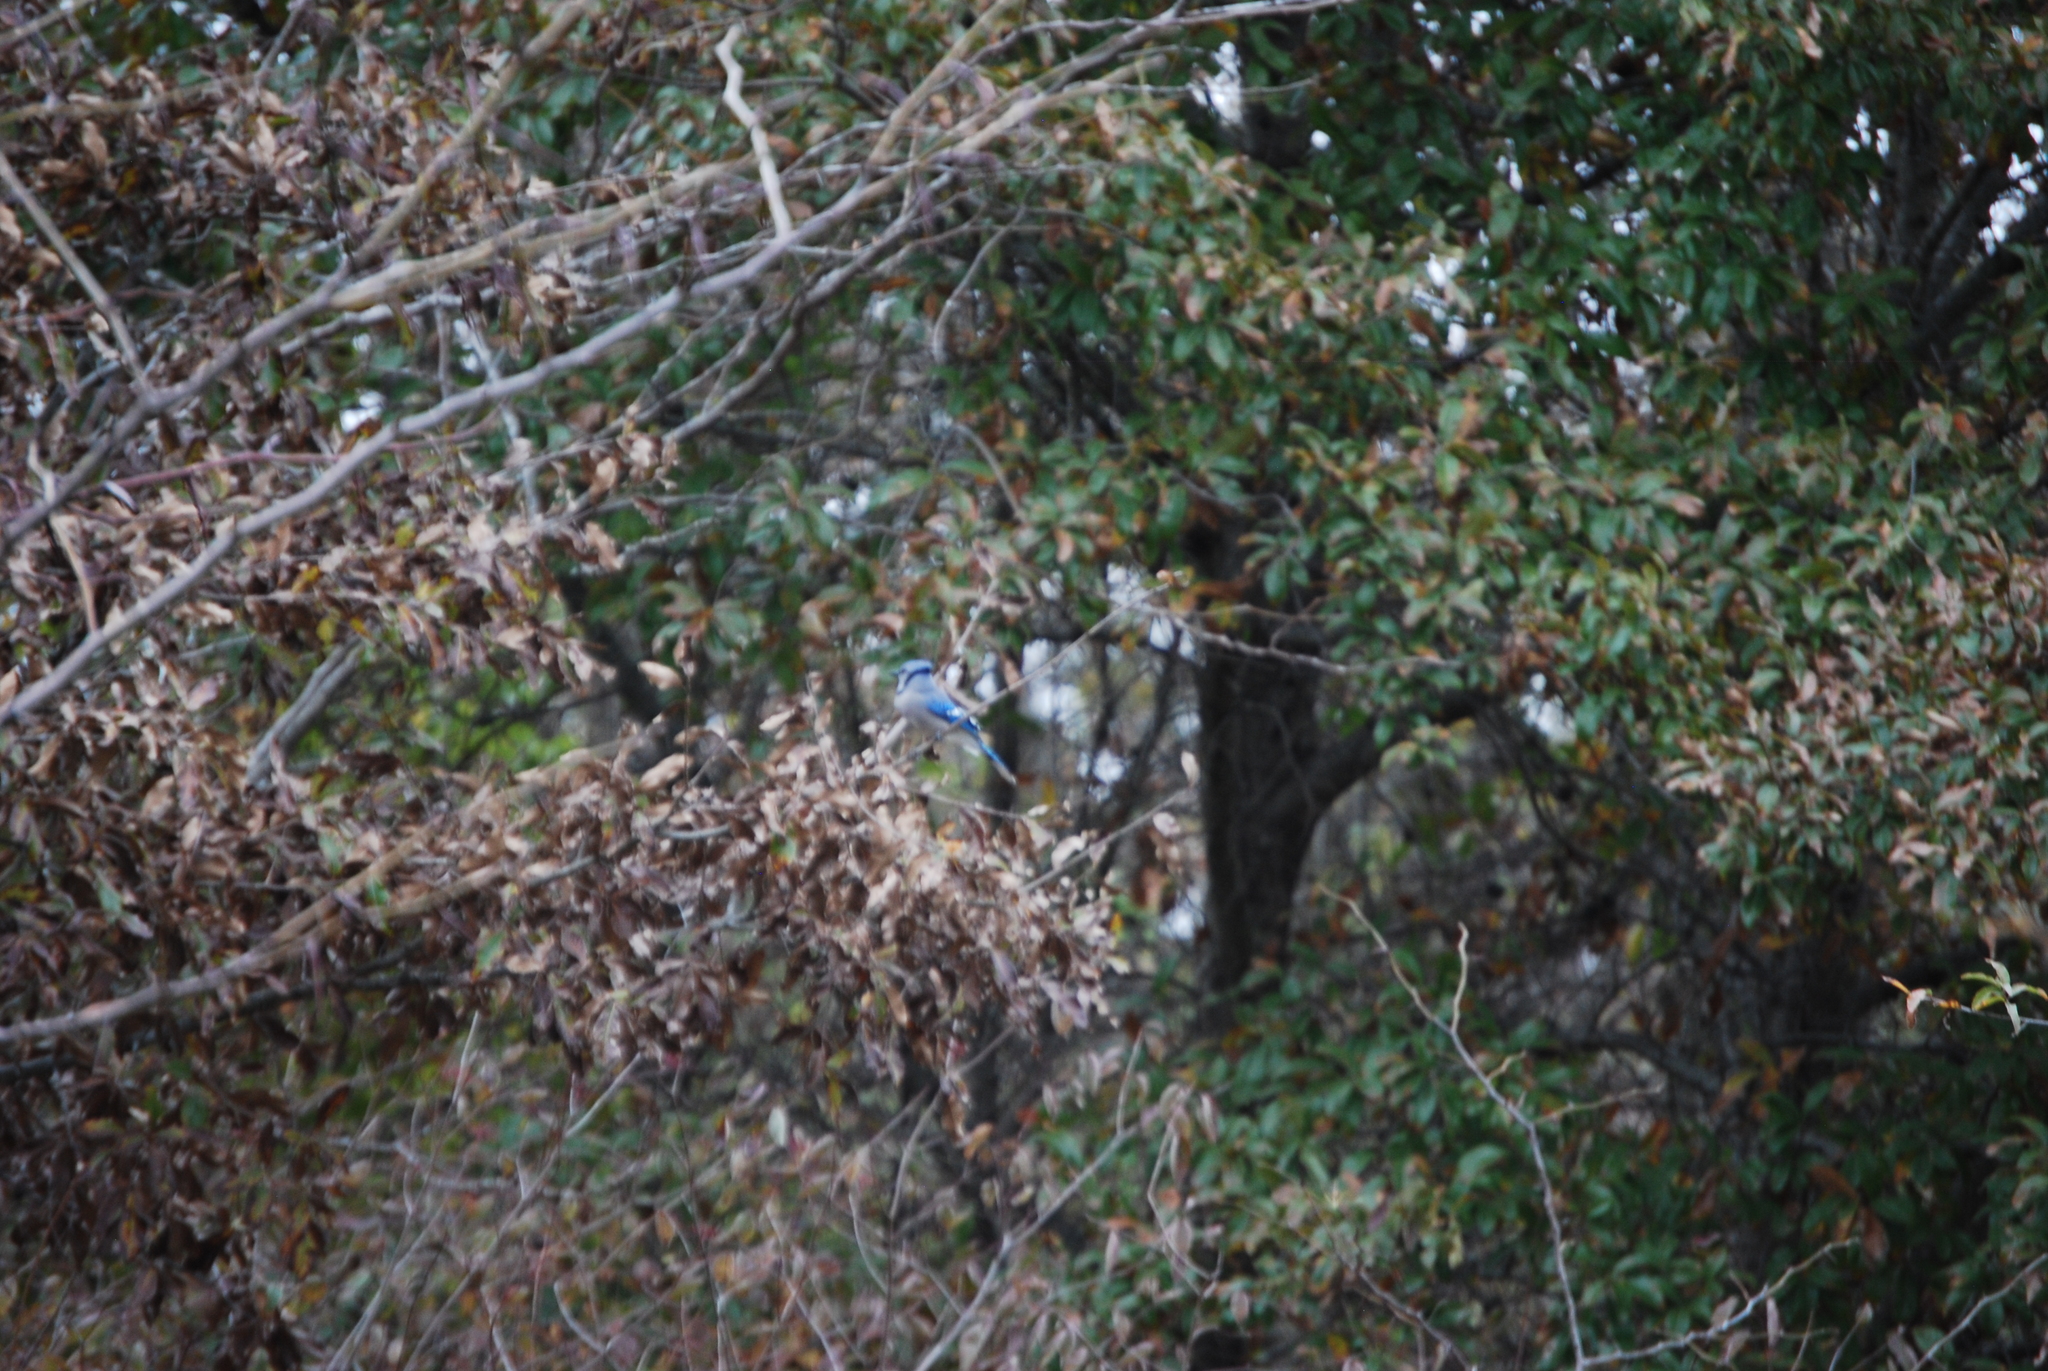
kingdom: Animalia
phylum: Chordata
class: Aves
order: Passeriformes
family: Corvidae
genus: Cyanocitta
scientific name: Cyanocitta cristata
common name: Blue jay
